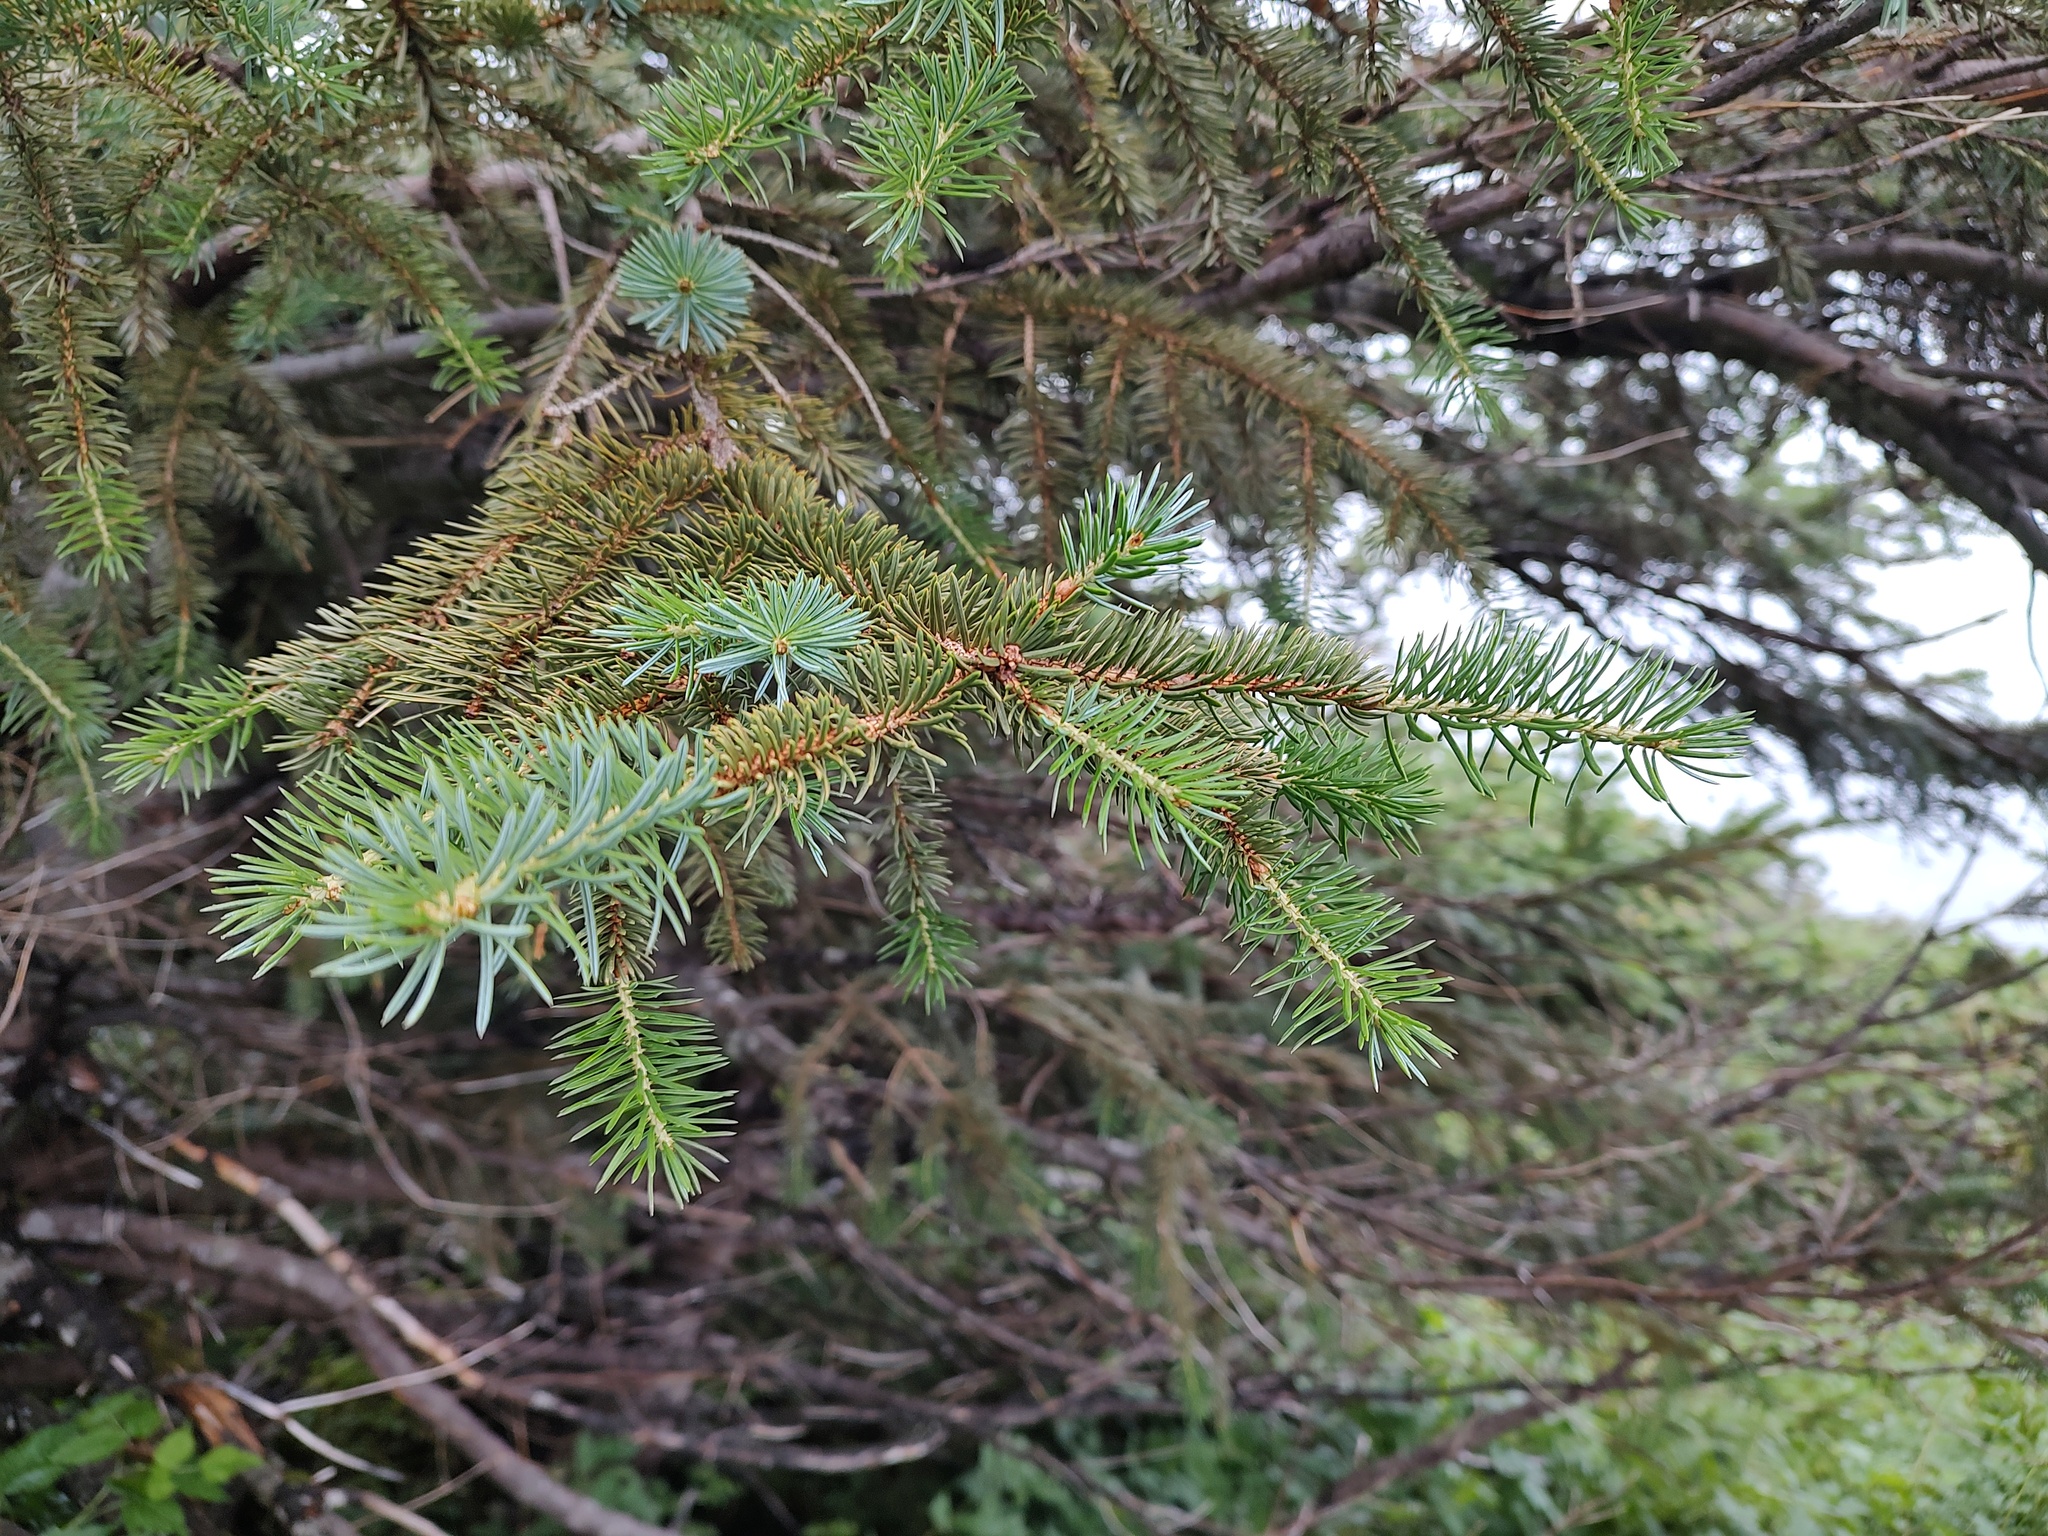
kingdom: Plantae
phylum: Tracheophyta
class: Pinopsida
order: Pinales
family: Pinaceae
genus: Picea
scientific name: Picea sitchensis
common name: Sitka spruce
